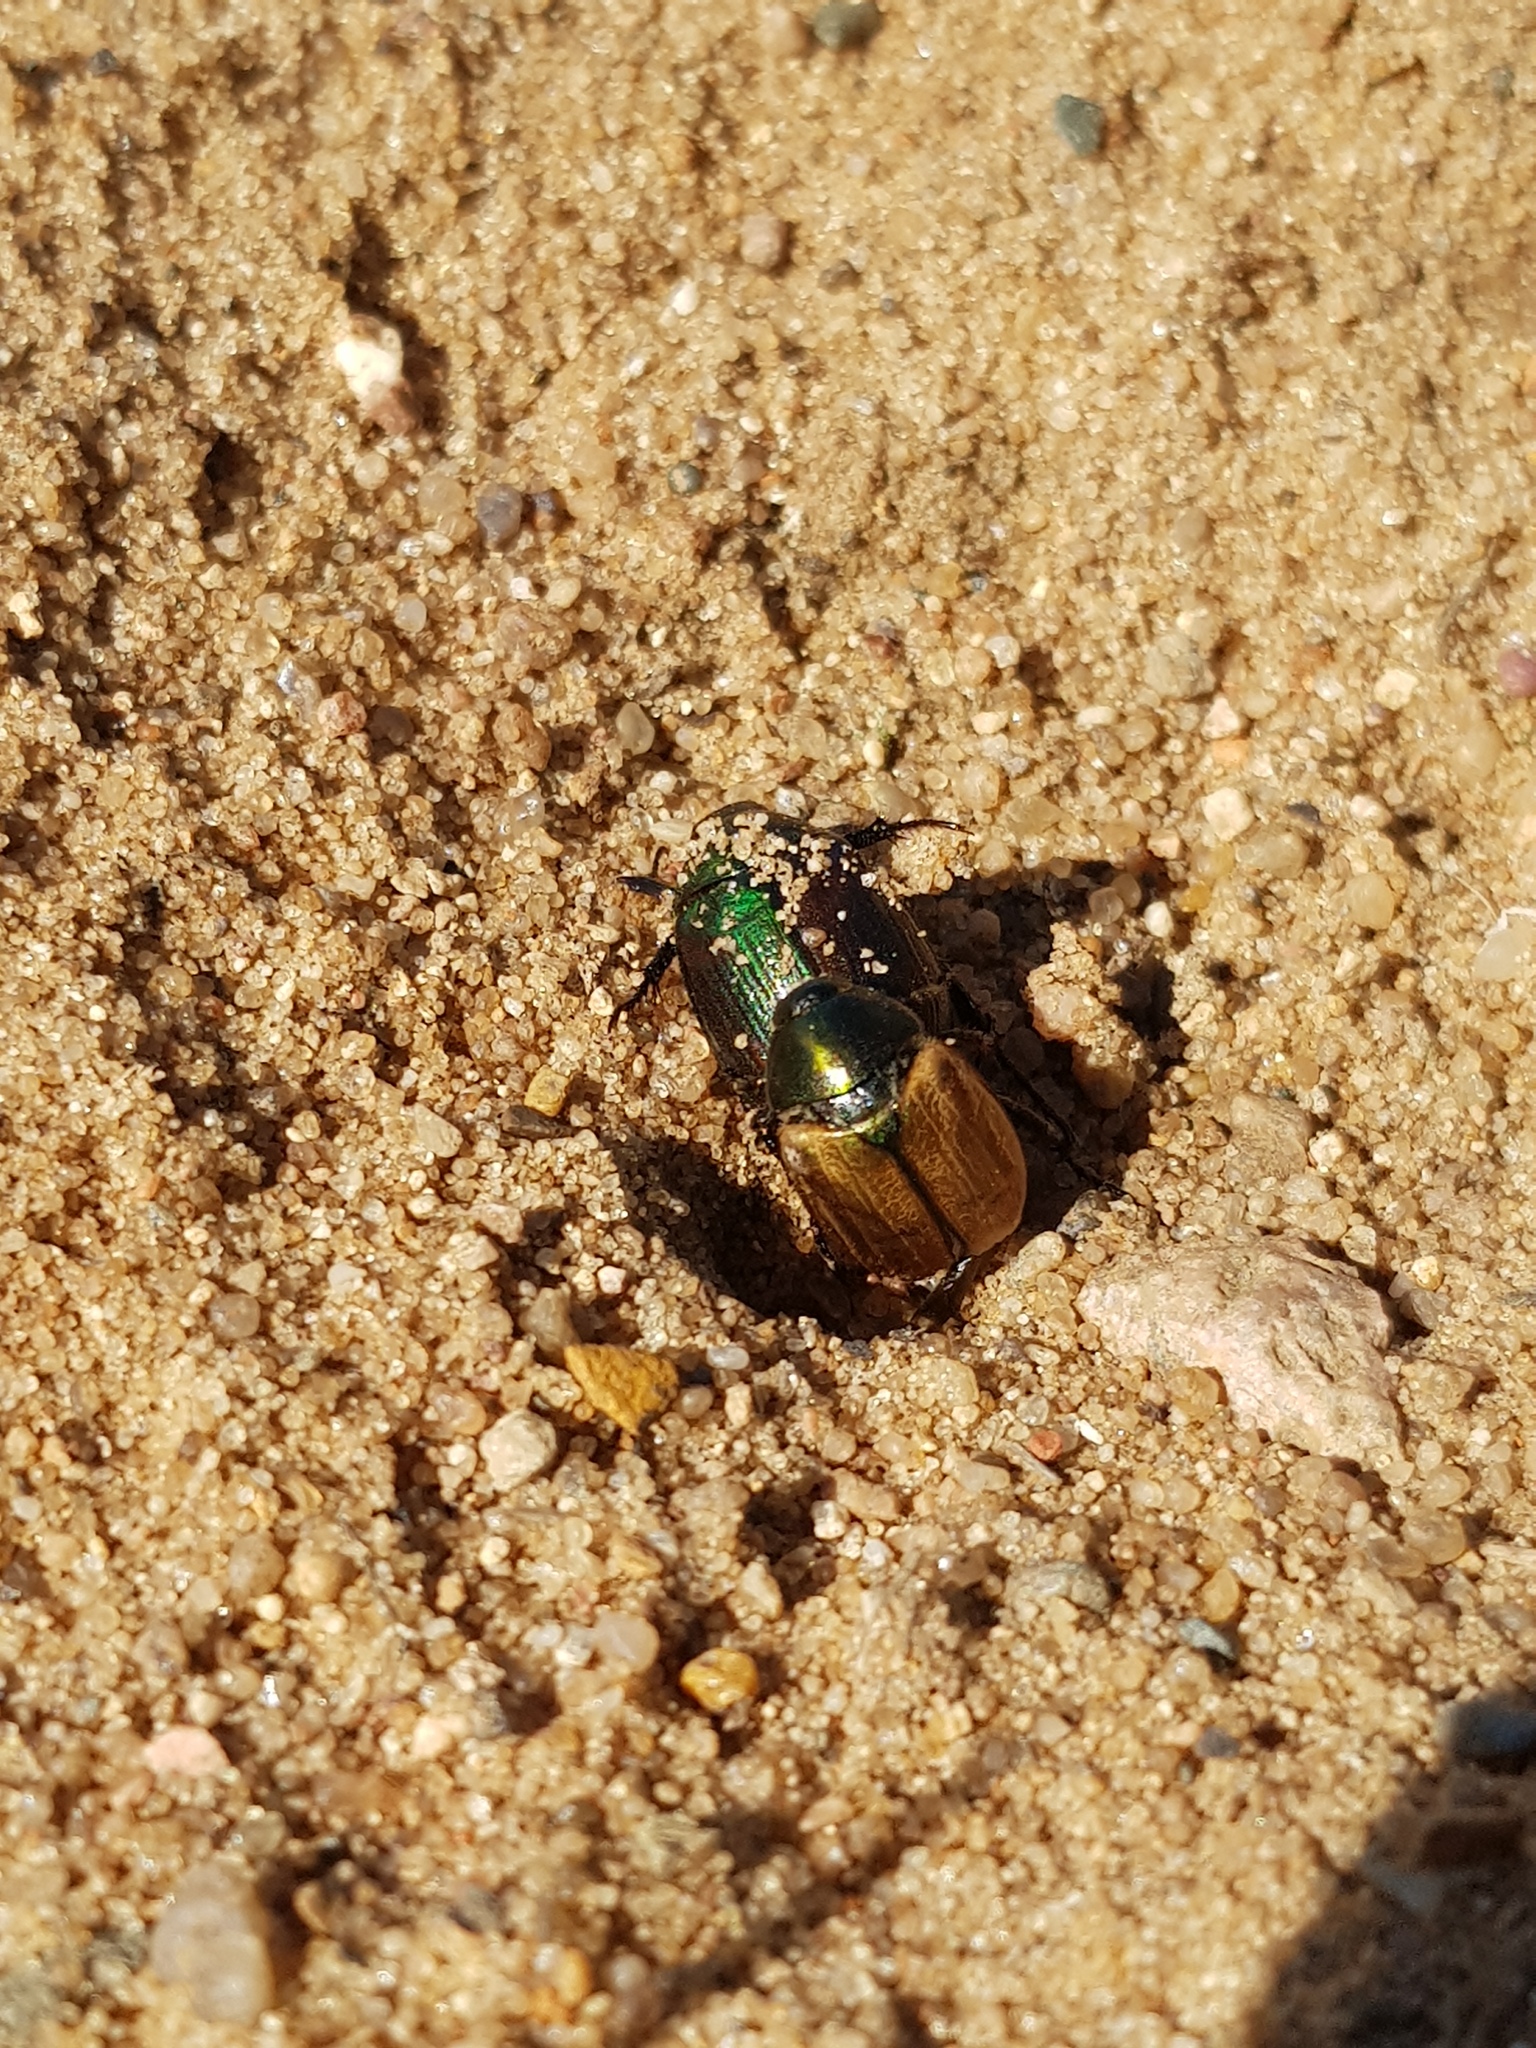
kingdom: Animalia
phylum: Arthropoda
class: Insecta
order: Coleoptera
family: Scarabaeidae
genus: Anomala
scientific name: Anomala dubia
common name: Dune chafer
